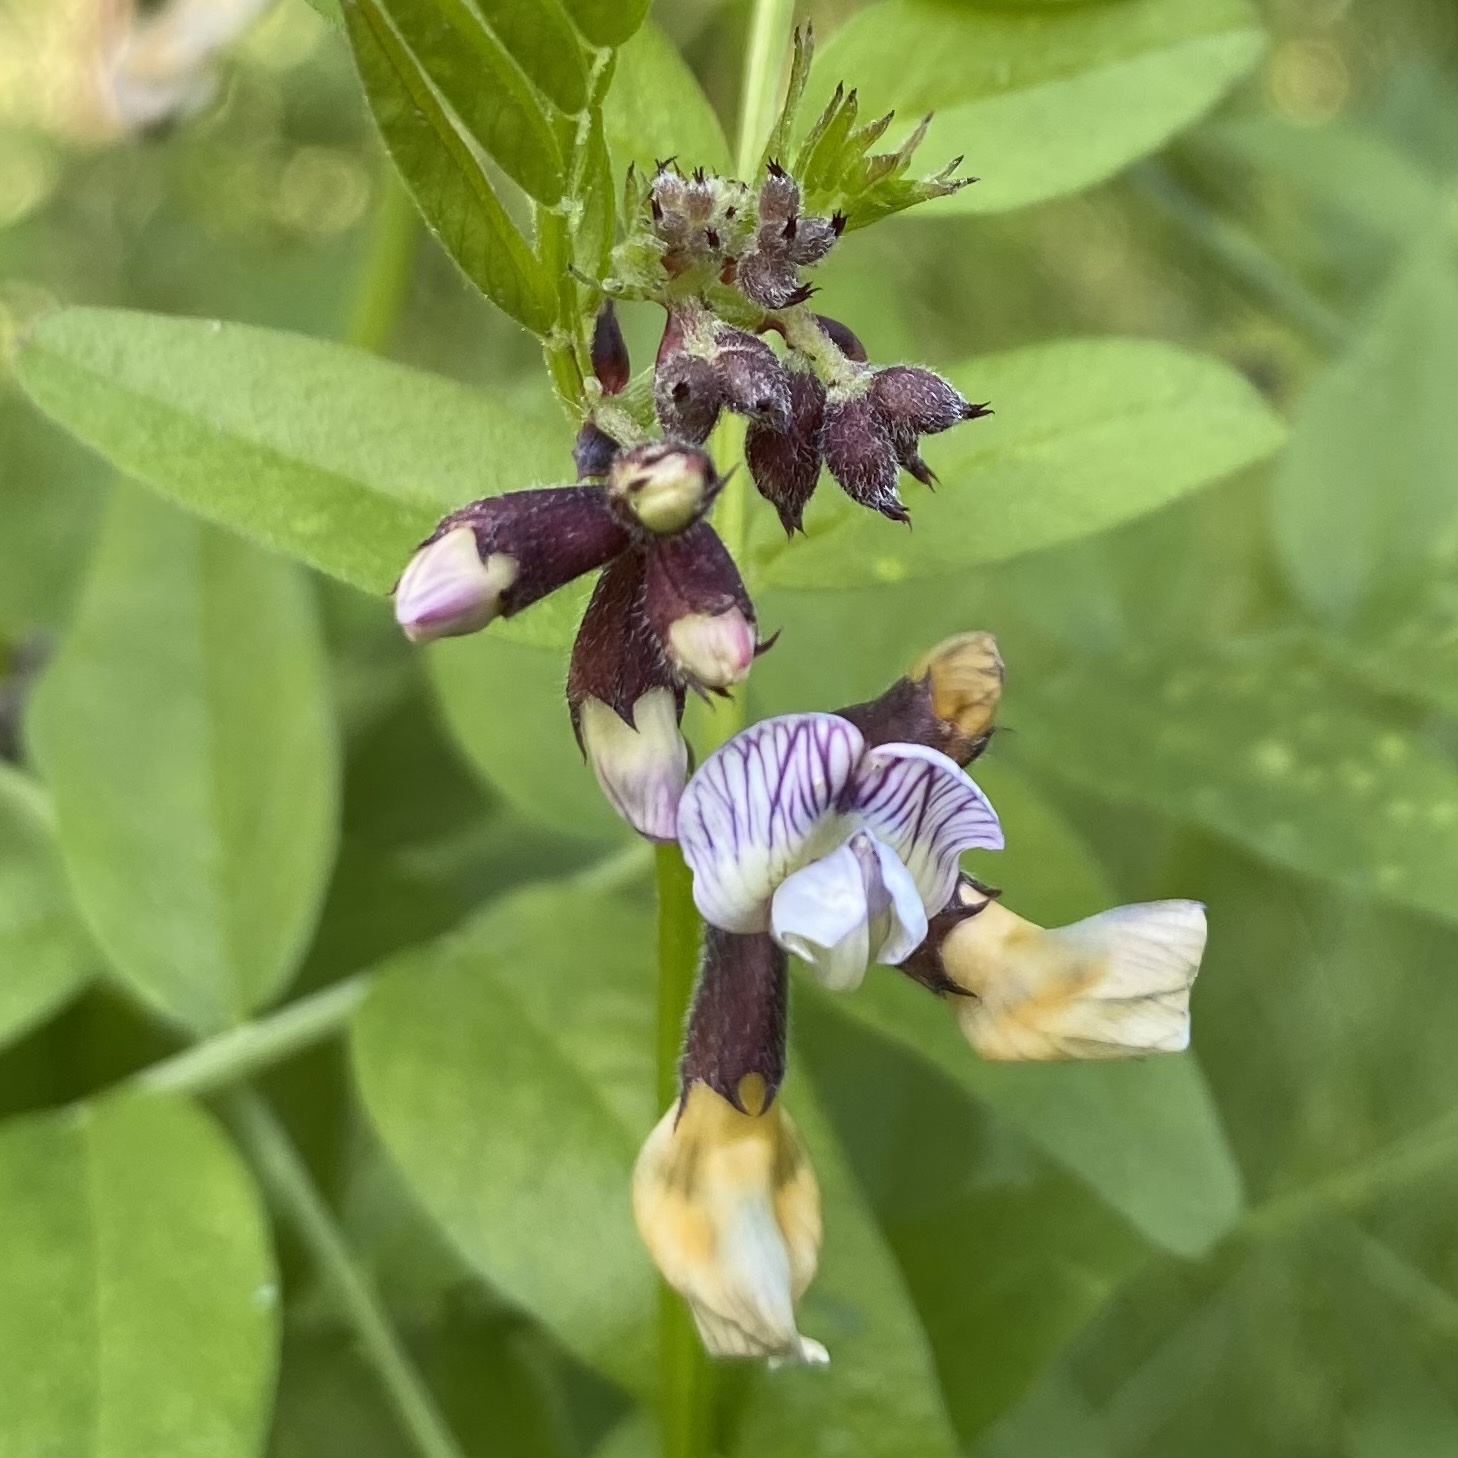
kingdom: Plantae
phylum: Tracheophyta
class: Magnoliopsida
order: Fabales
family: Fabaceae
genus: Vicia
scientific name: Vicia sepium
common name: Bush vetch
